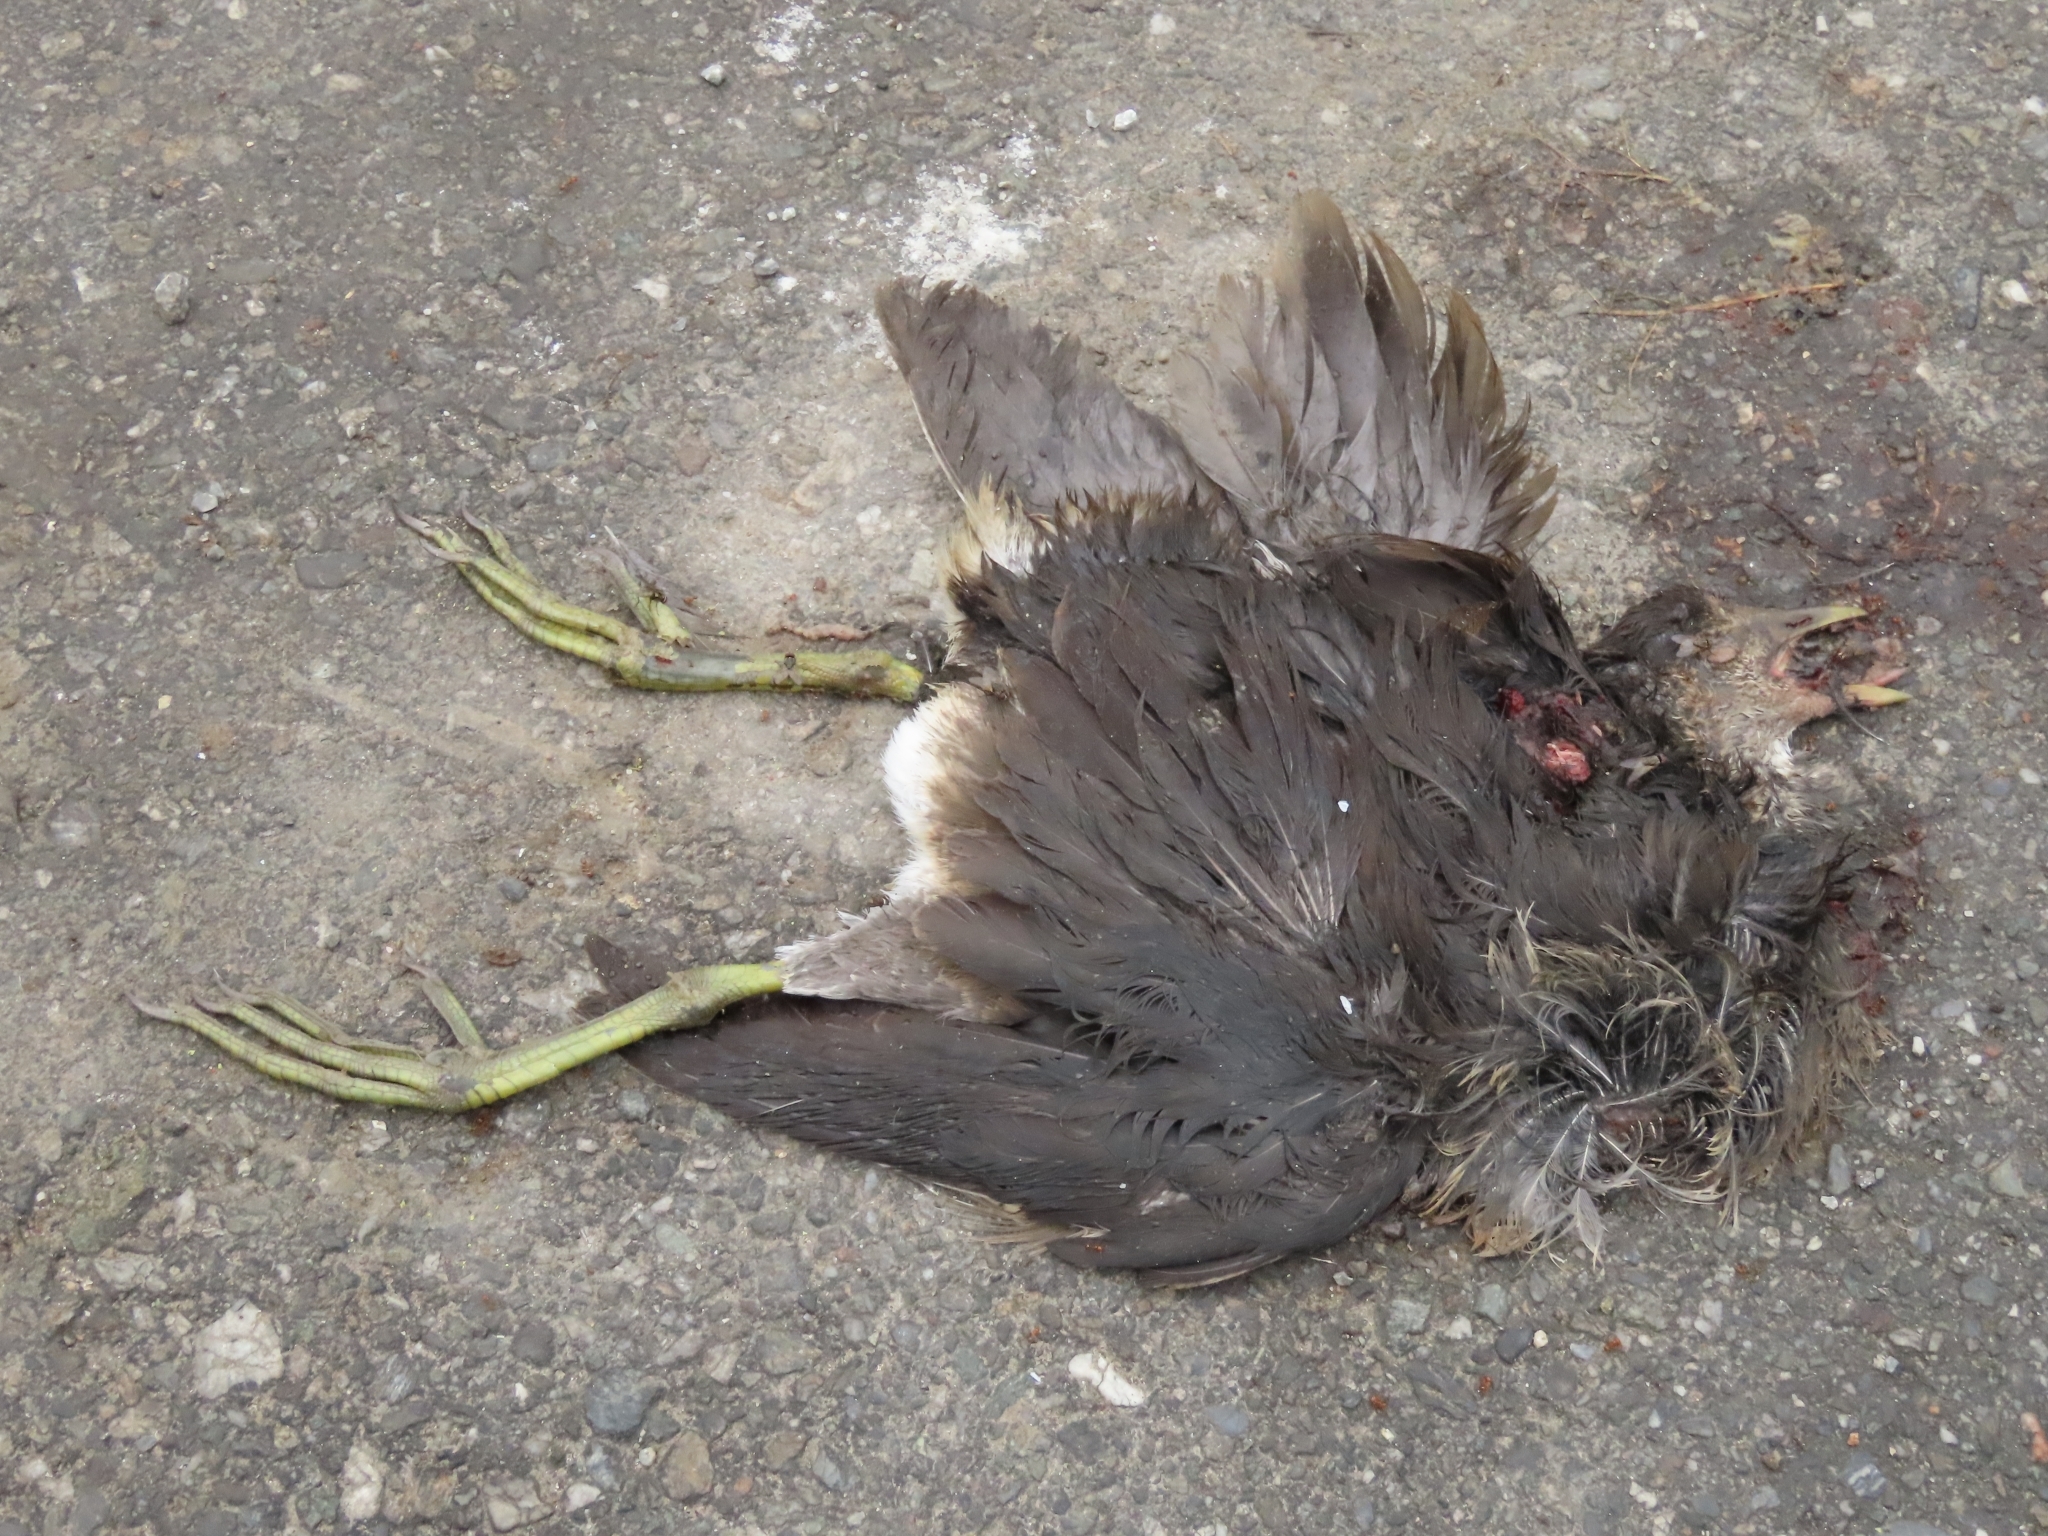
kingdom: Animalia
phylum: Chordata
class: Aves
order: Gruiformes
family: Rallidae
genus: Amaurornis
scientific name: Amaurornis phoenicurus
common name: White-breasted waterhen
